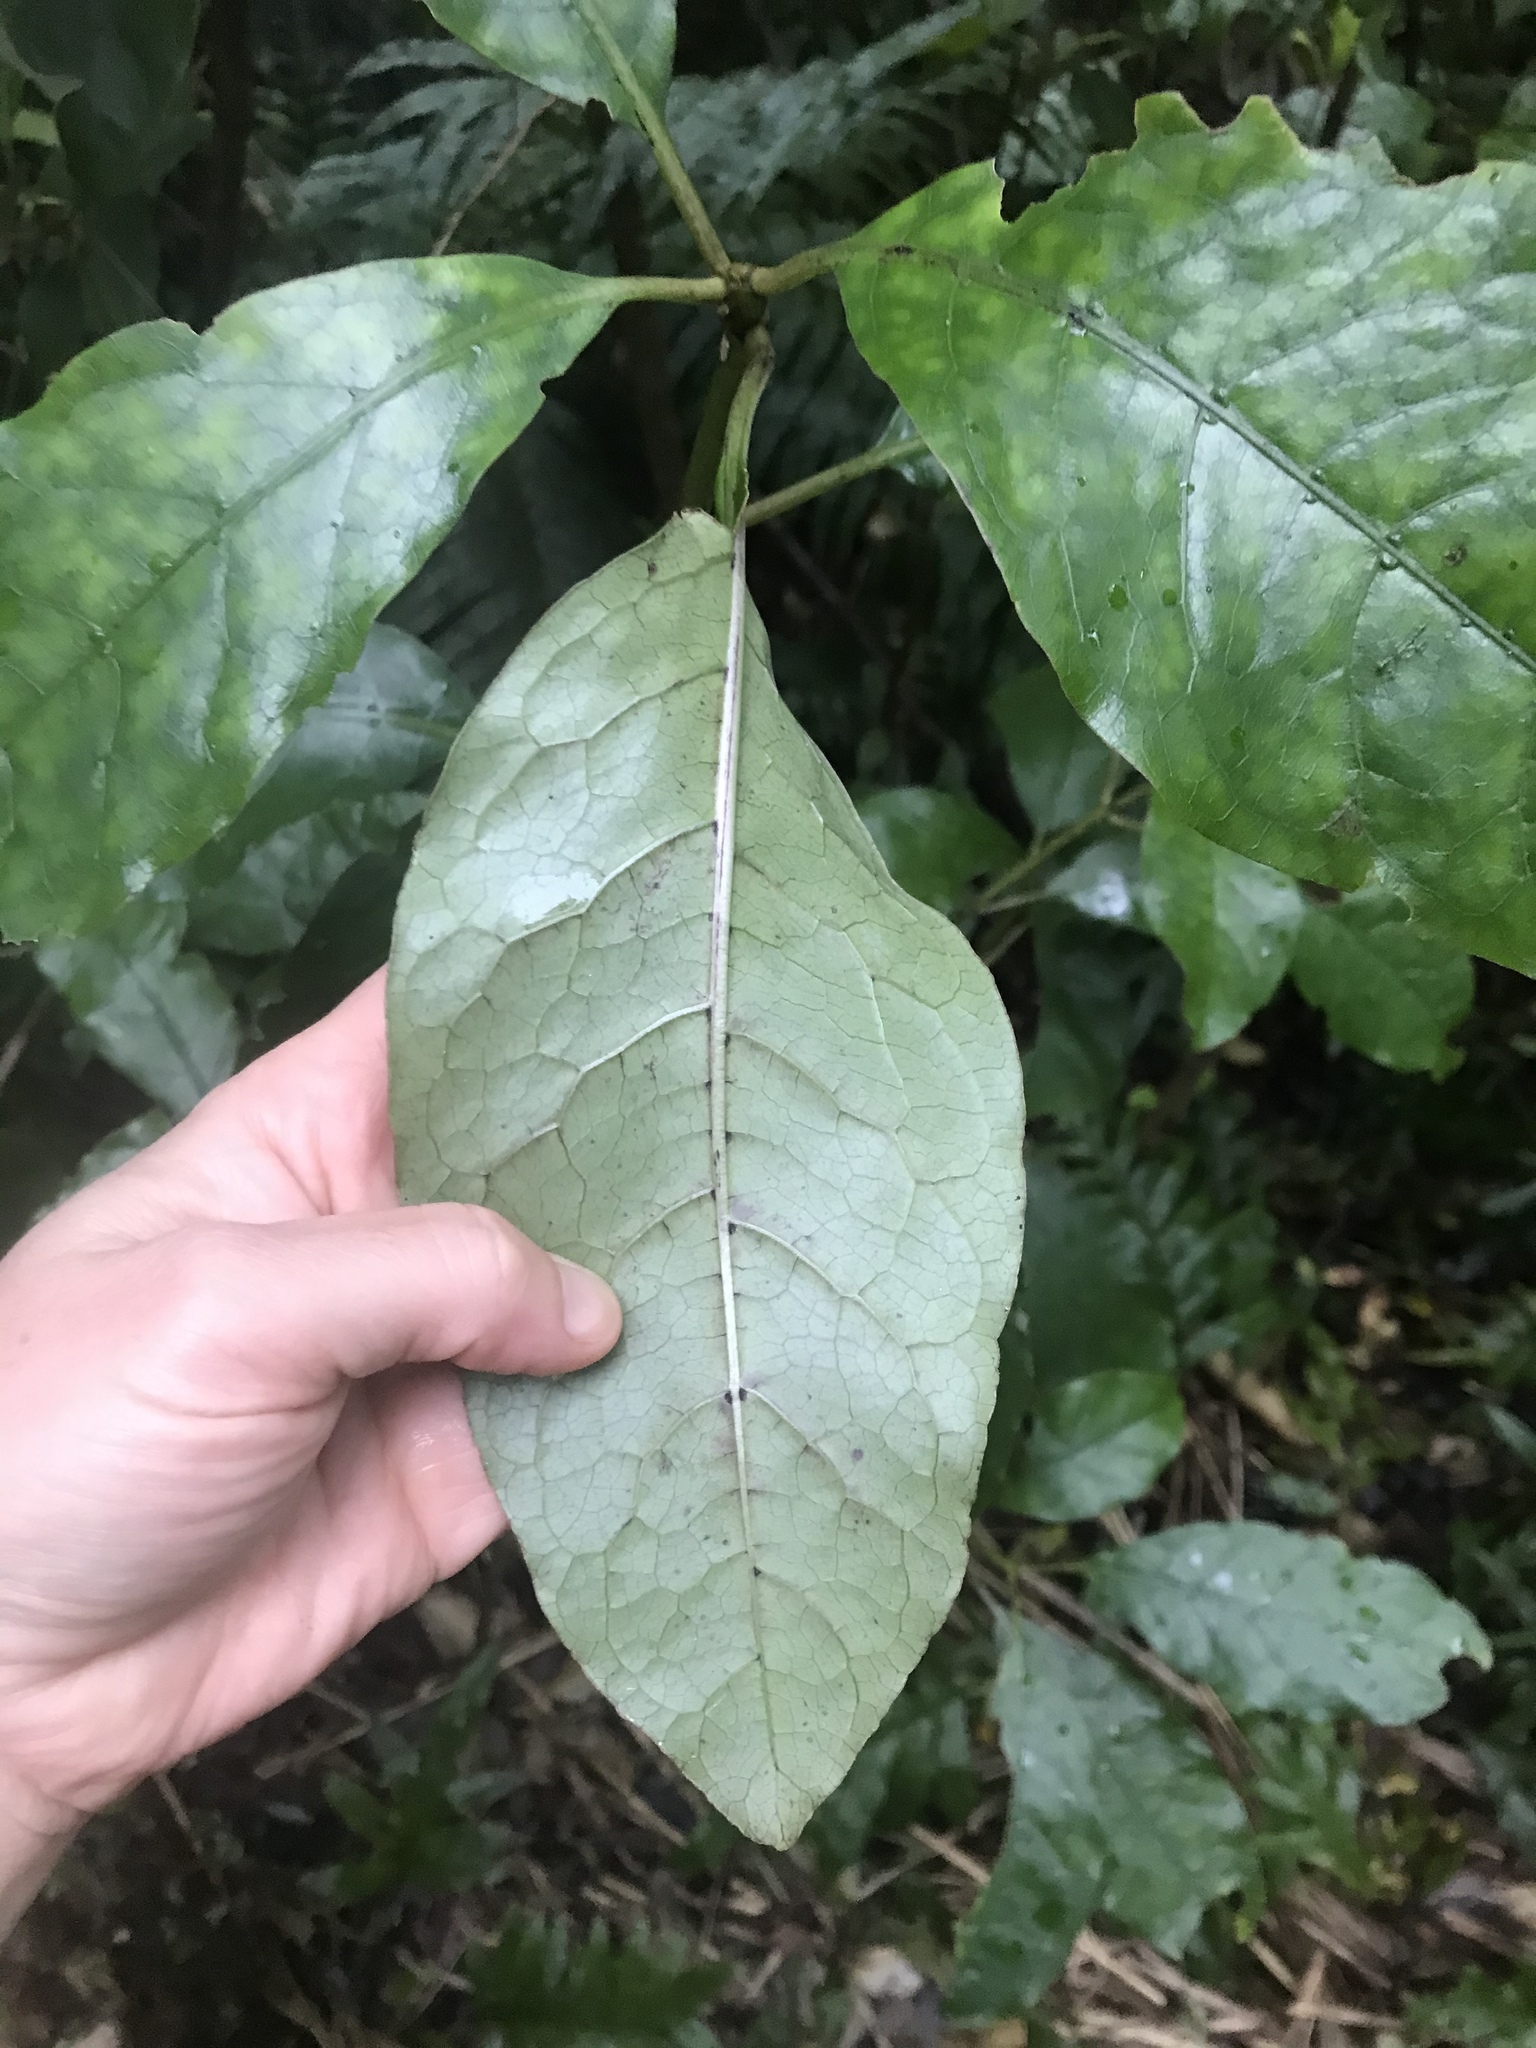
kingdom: Plantae
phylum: Tracheophyta
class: Magnoliopsida
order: Gentianales
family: Rubiaceae
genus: Coprosma
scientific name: Coprosma autumnalis
